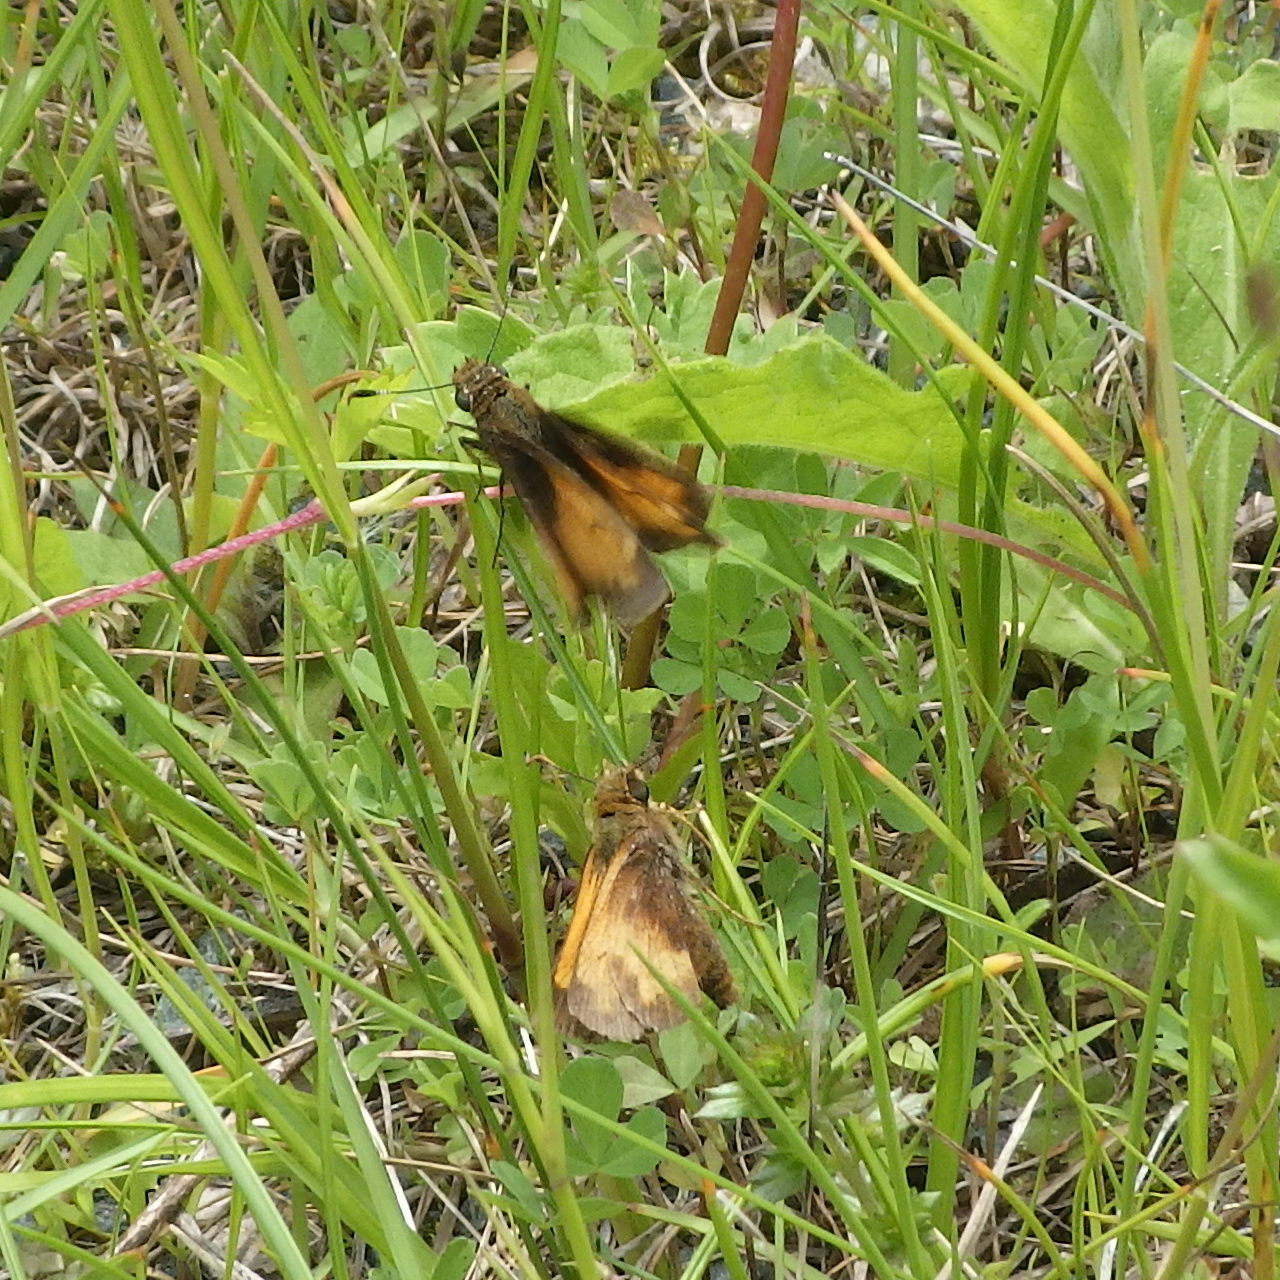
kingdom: Animalia
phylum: Arthropoda
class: Insecta
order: Lepidoptera
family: Hesperiidae
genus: Lon
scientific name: Lon hobomok
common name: Hobomok skipper
